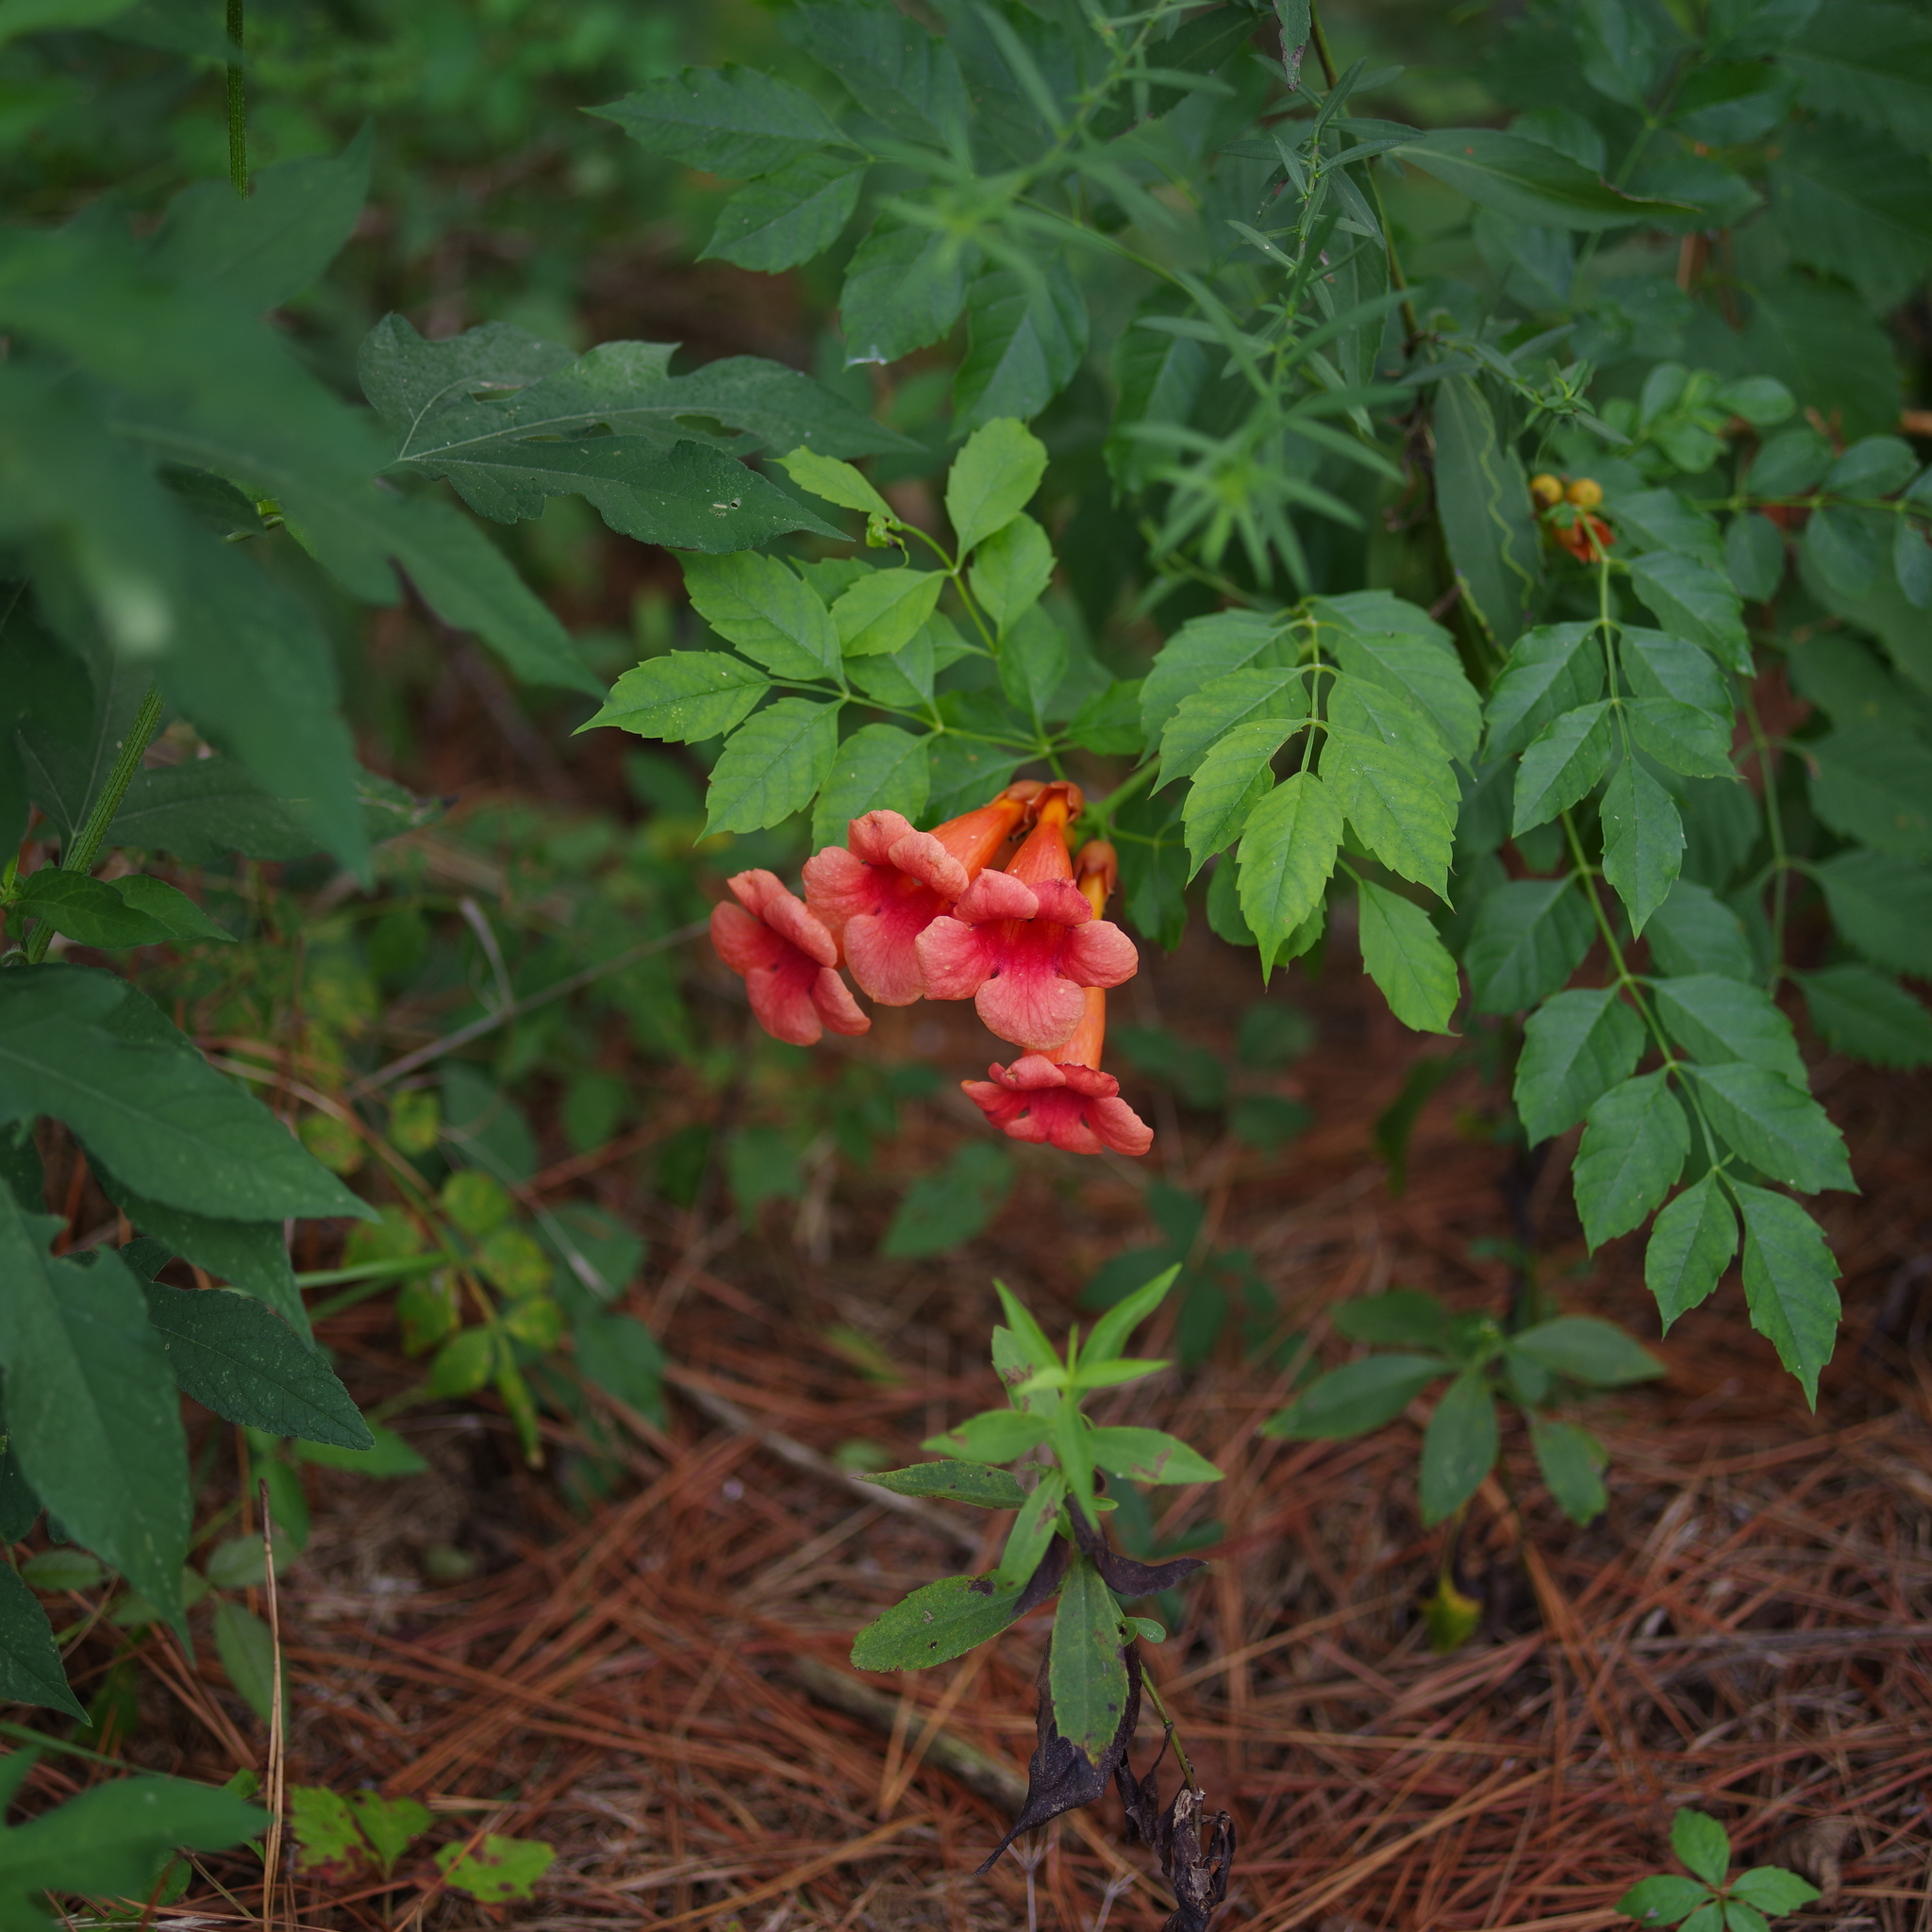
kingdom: Plantae
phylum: Tracheophyta
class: Magnoliopsida
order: Lamiales
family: Bignoniaceae
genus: Campsis
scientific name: Campsis radicans
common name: Trumpet-creeper
